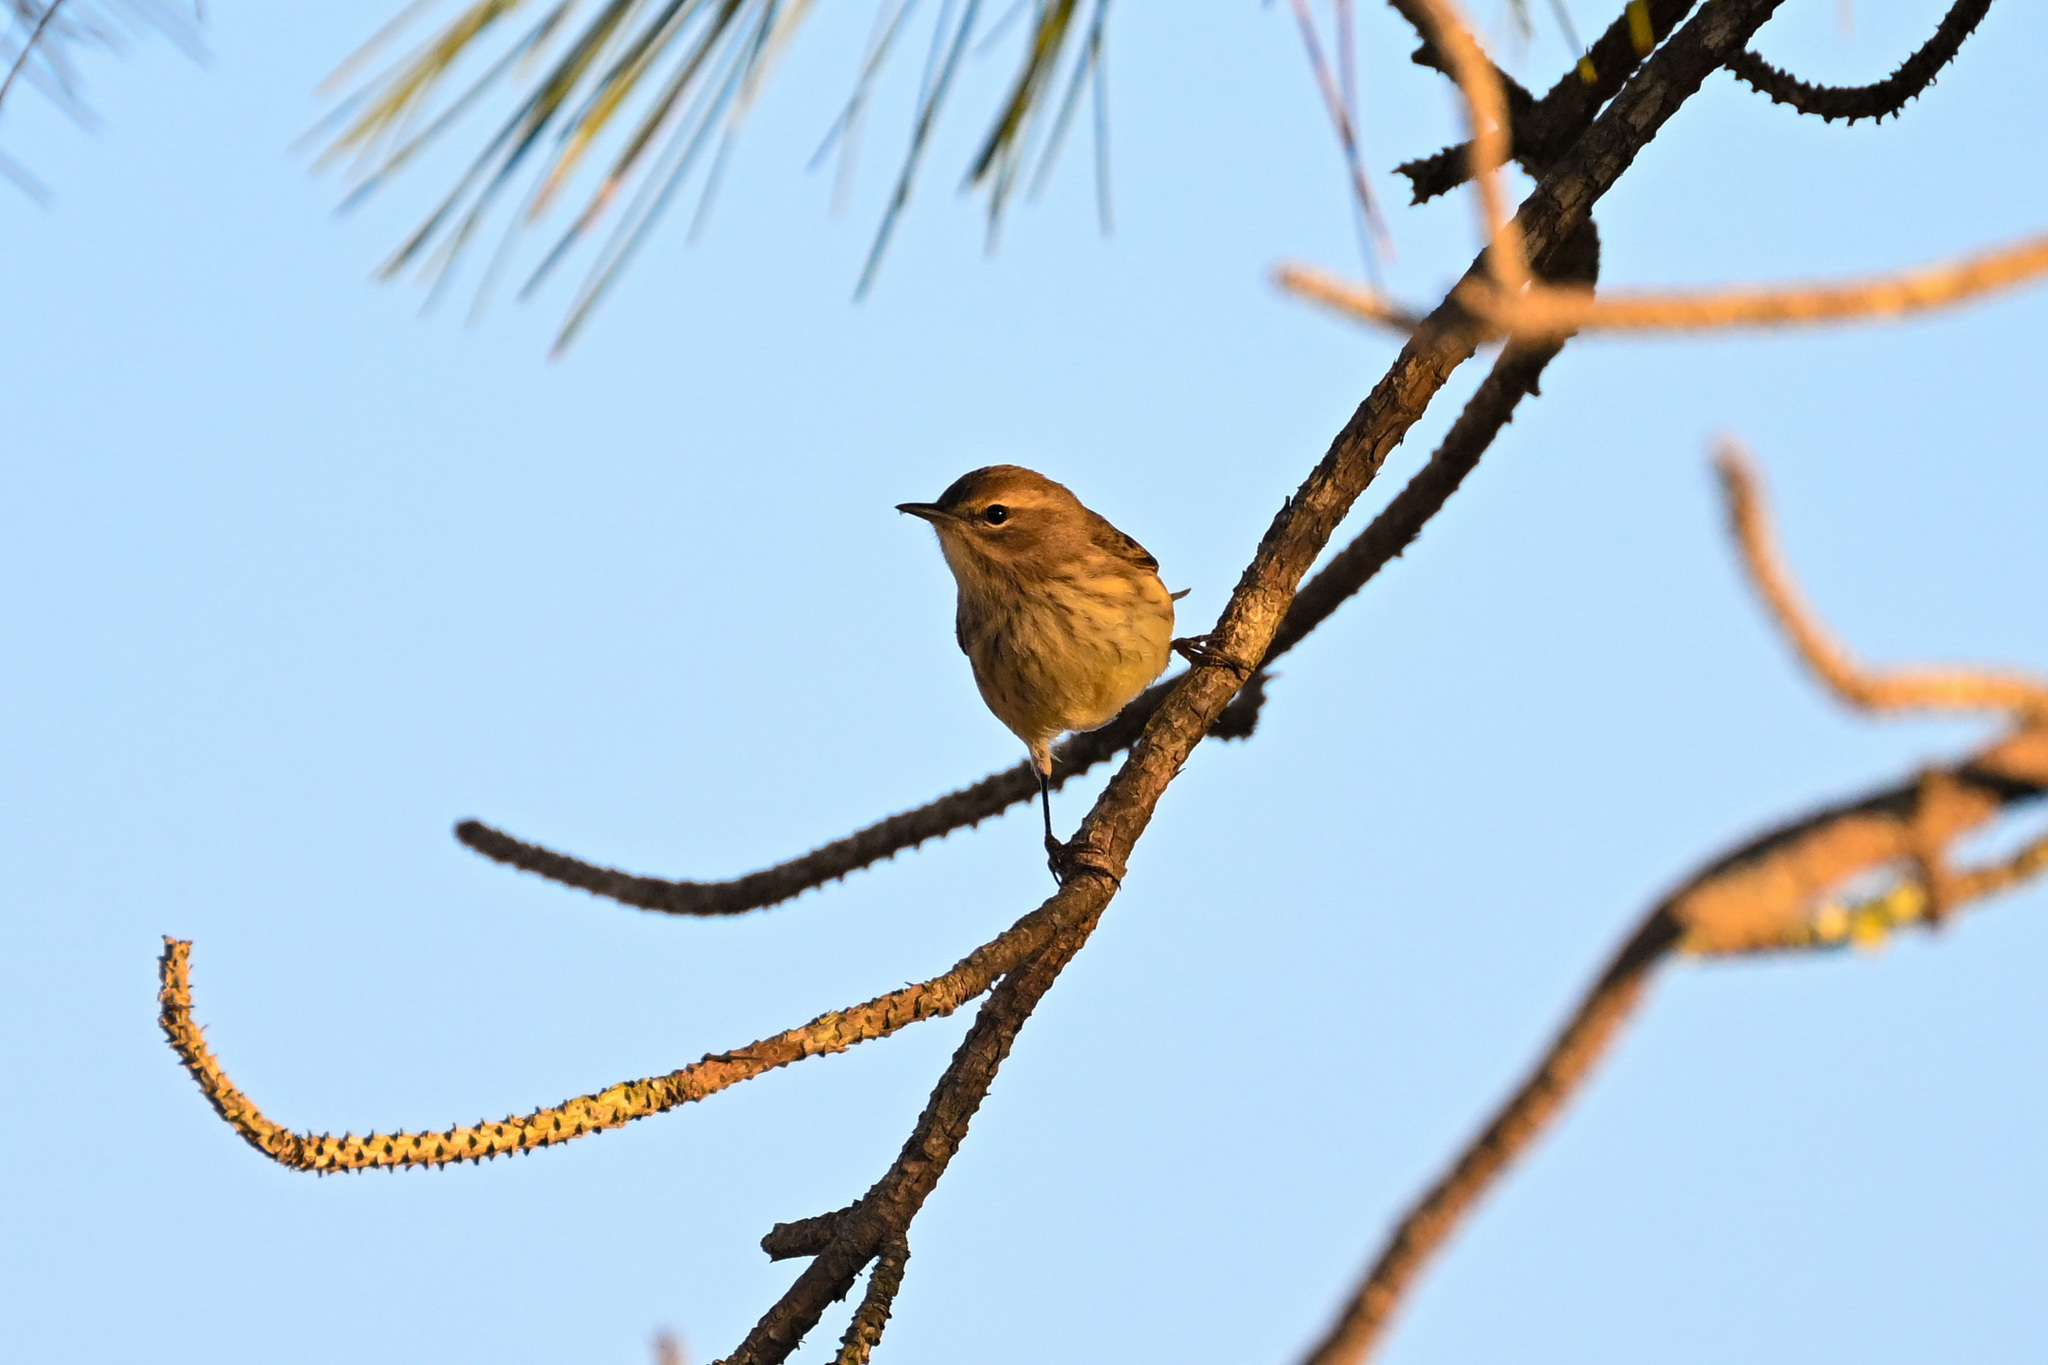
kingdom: Animalia
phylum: Chordata
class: Aves
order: Passeriformes
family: Parulidae
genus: Setophaga
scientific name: Setophaga palmarum
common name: Palm warbler
